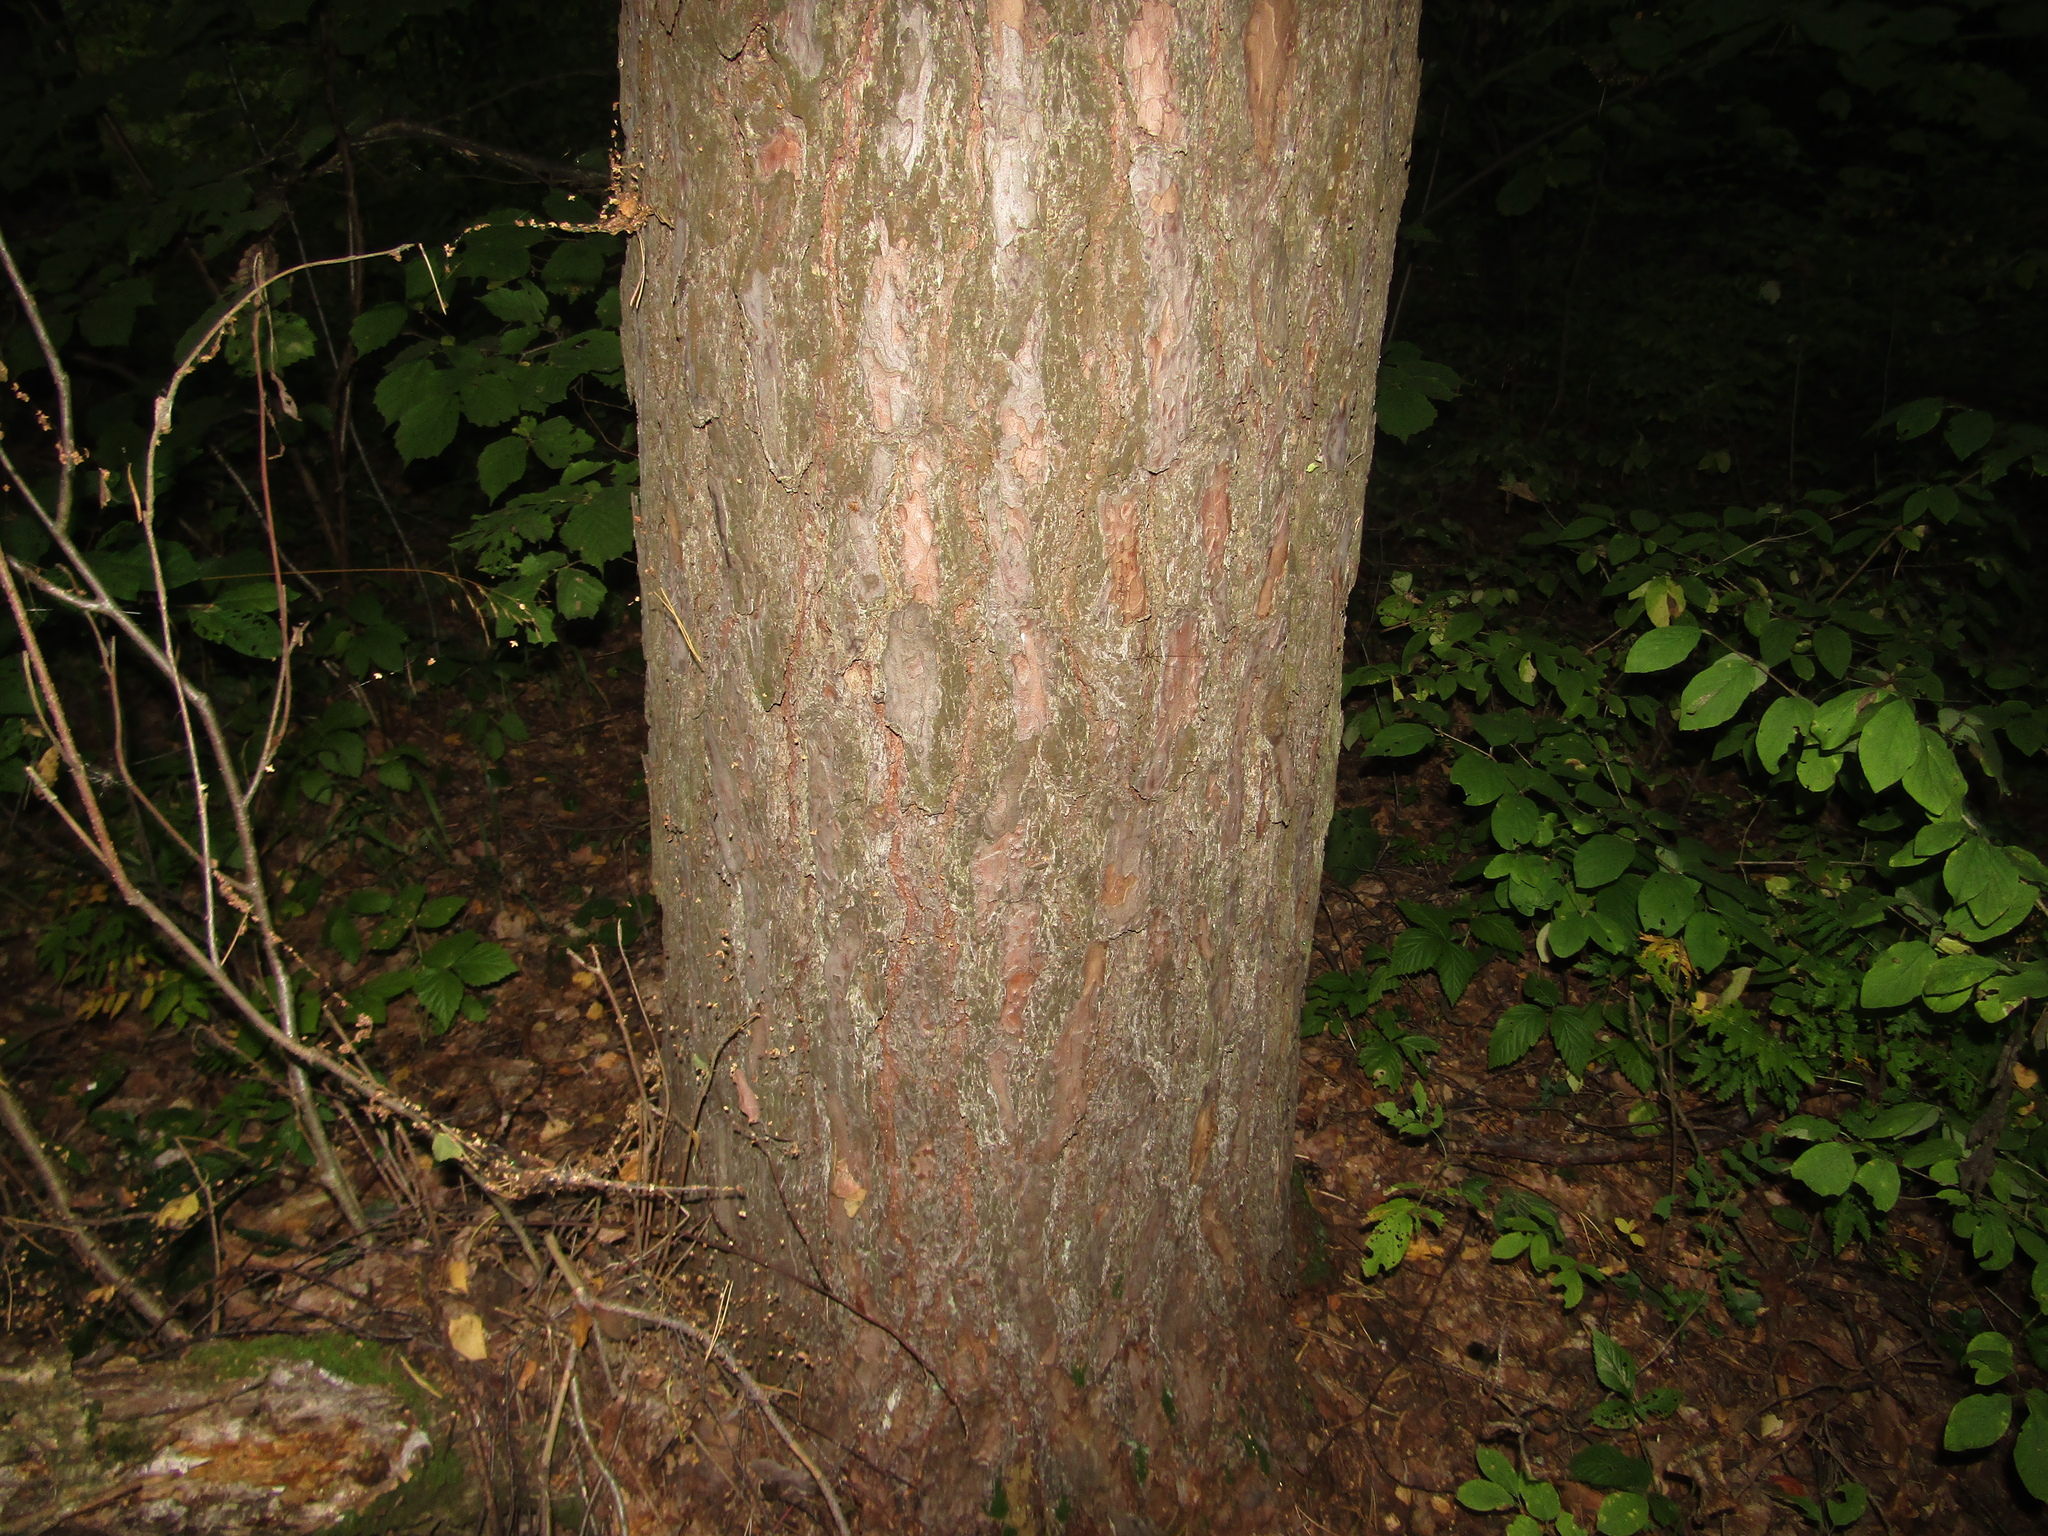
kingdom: Plantae
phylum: Tracheophyta
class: Pinopsida
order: Pinales
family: Pinaceae
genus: Pinus
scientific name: Pinus sylvestris
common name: Scots pine
